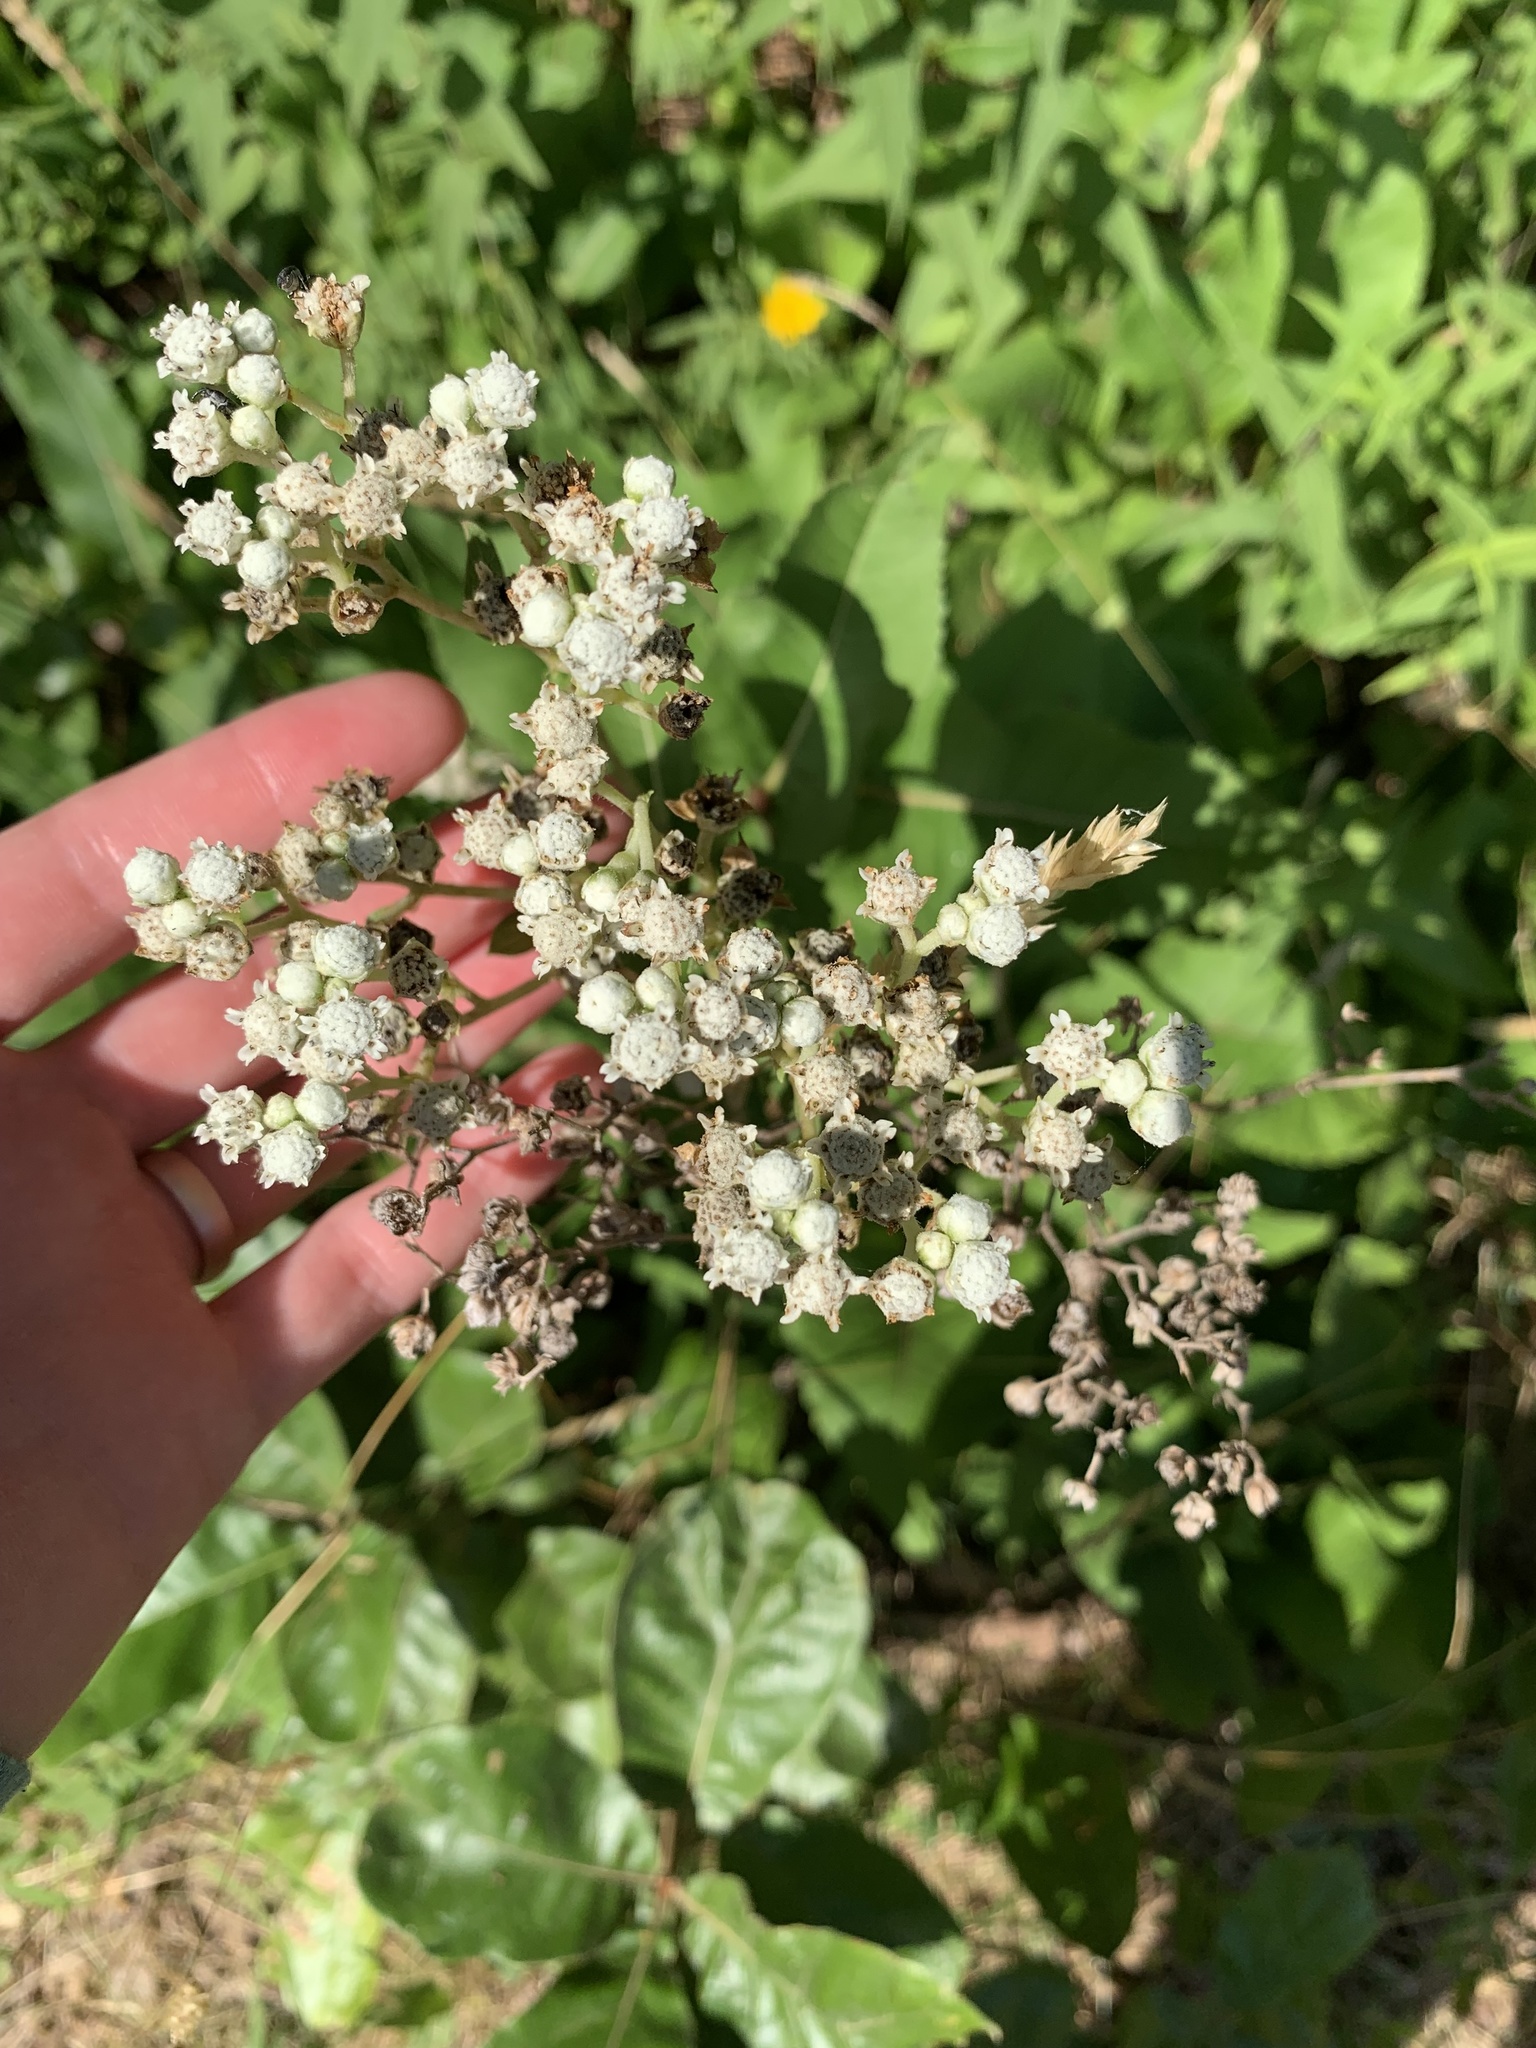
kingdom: Plantae
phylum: Tracheophyta
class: Magnoliopsida
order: Asterales
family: Asteraceae
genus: Parthenium
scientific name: Parthenium integrifolium
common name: American feverfew
